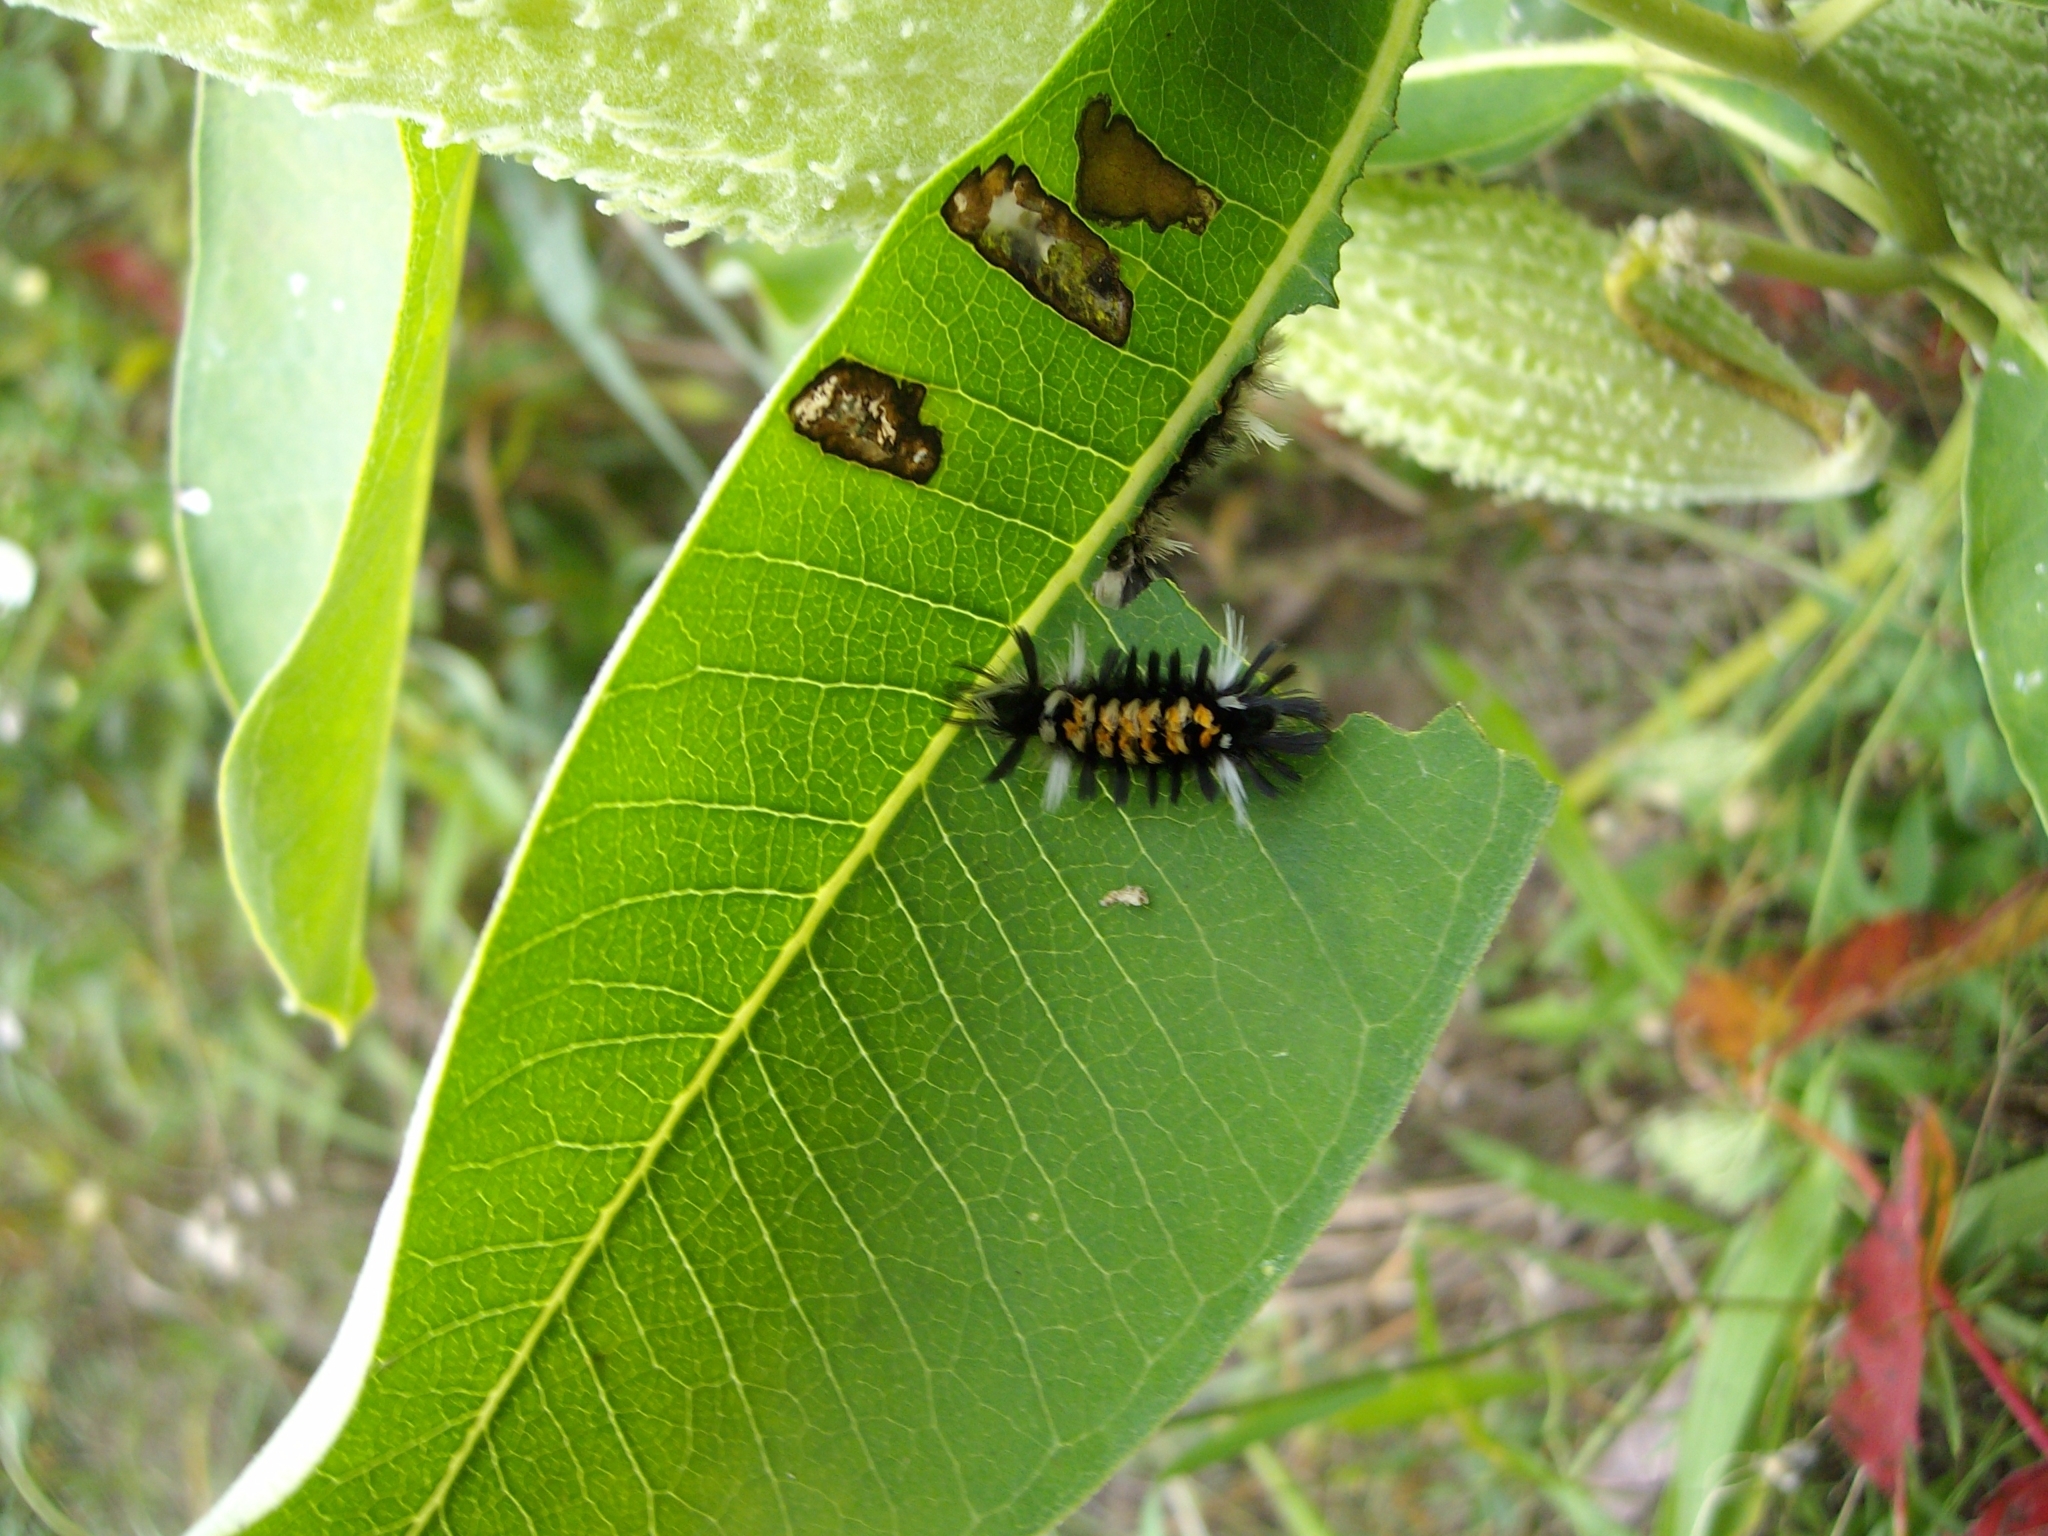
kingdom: Animalia
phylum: Arthropoda
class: Insecta
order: Lepidoptera
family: Erebidae
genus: Euchaetes
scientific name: Euchaetes egle
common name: Milkweed tussock moth
